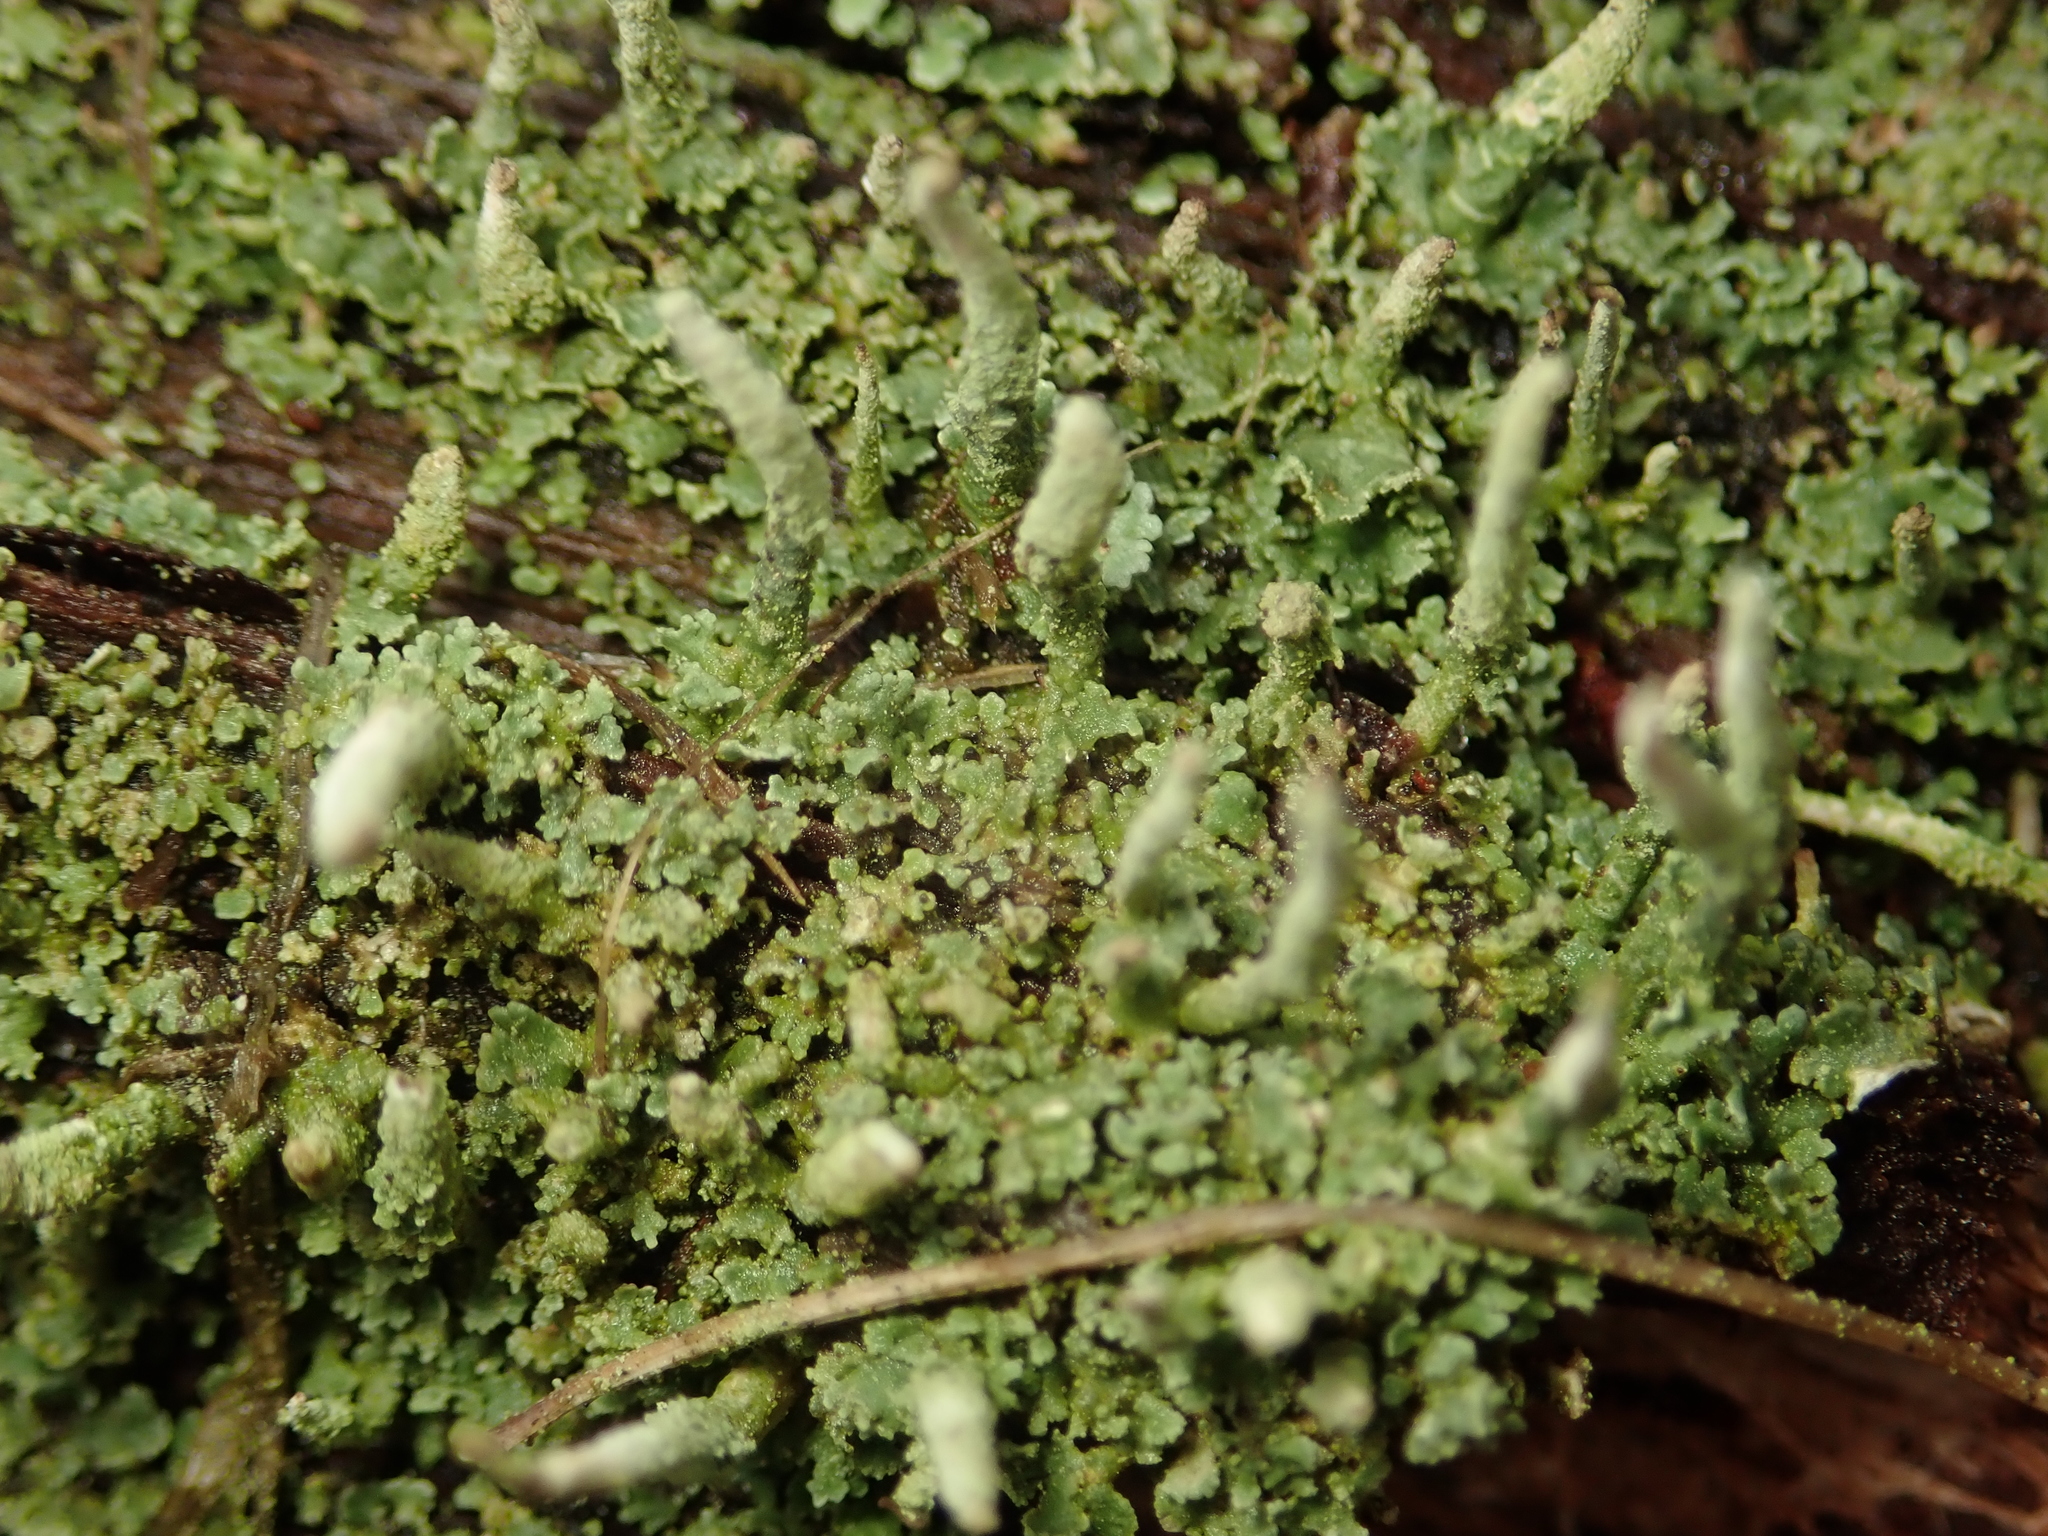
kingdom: Fungi
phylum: Ascomycota
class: Lecanoromycetes
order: Lecanorales
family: Cladoniaceae
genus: Cladonia
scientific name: Cladonia coniocraea
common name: Common powderhorn
